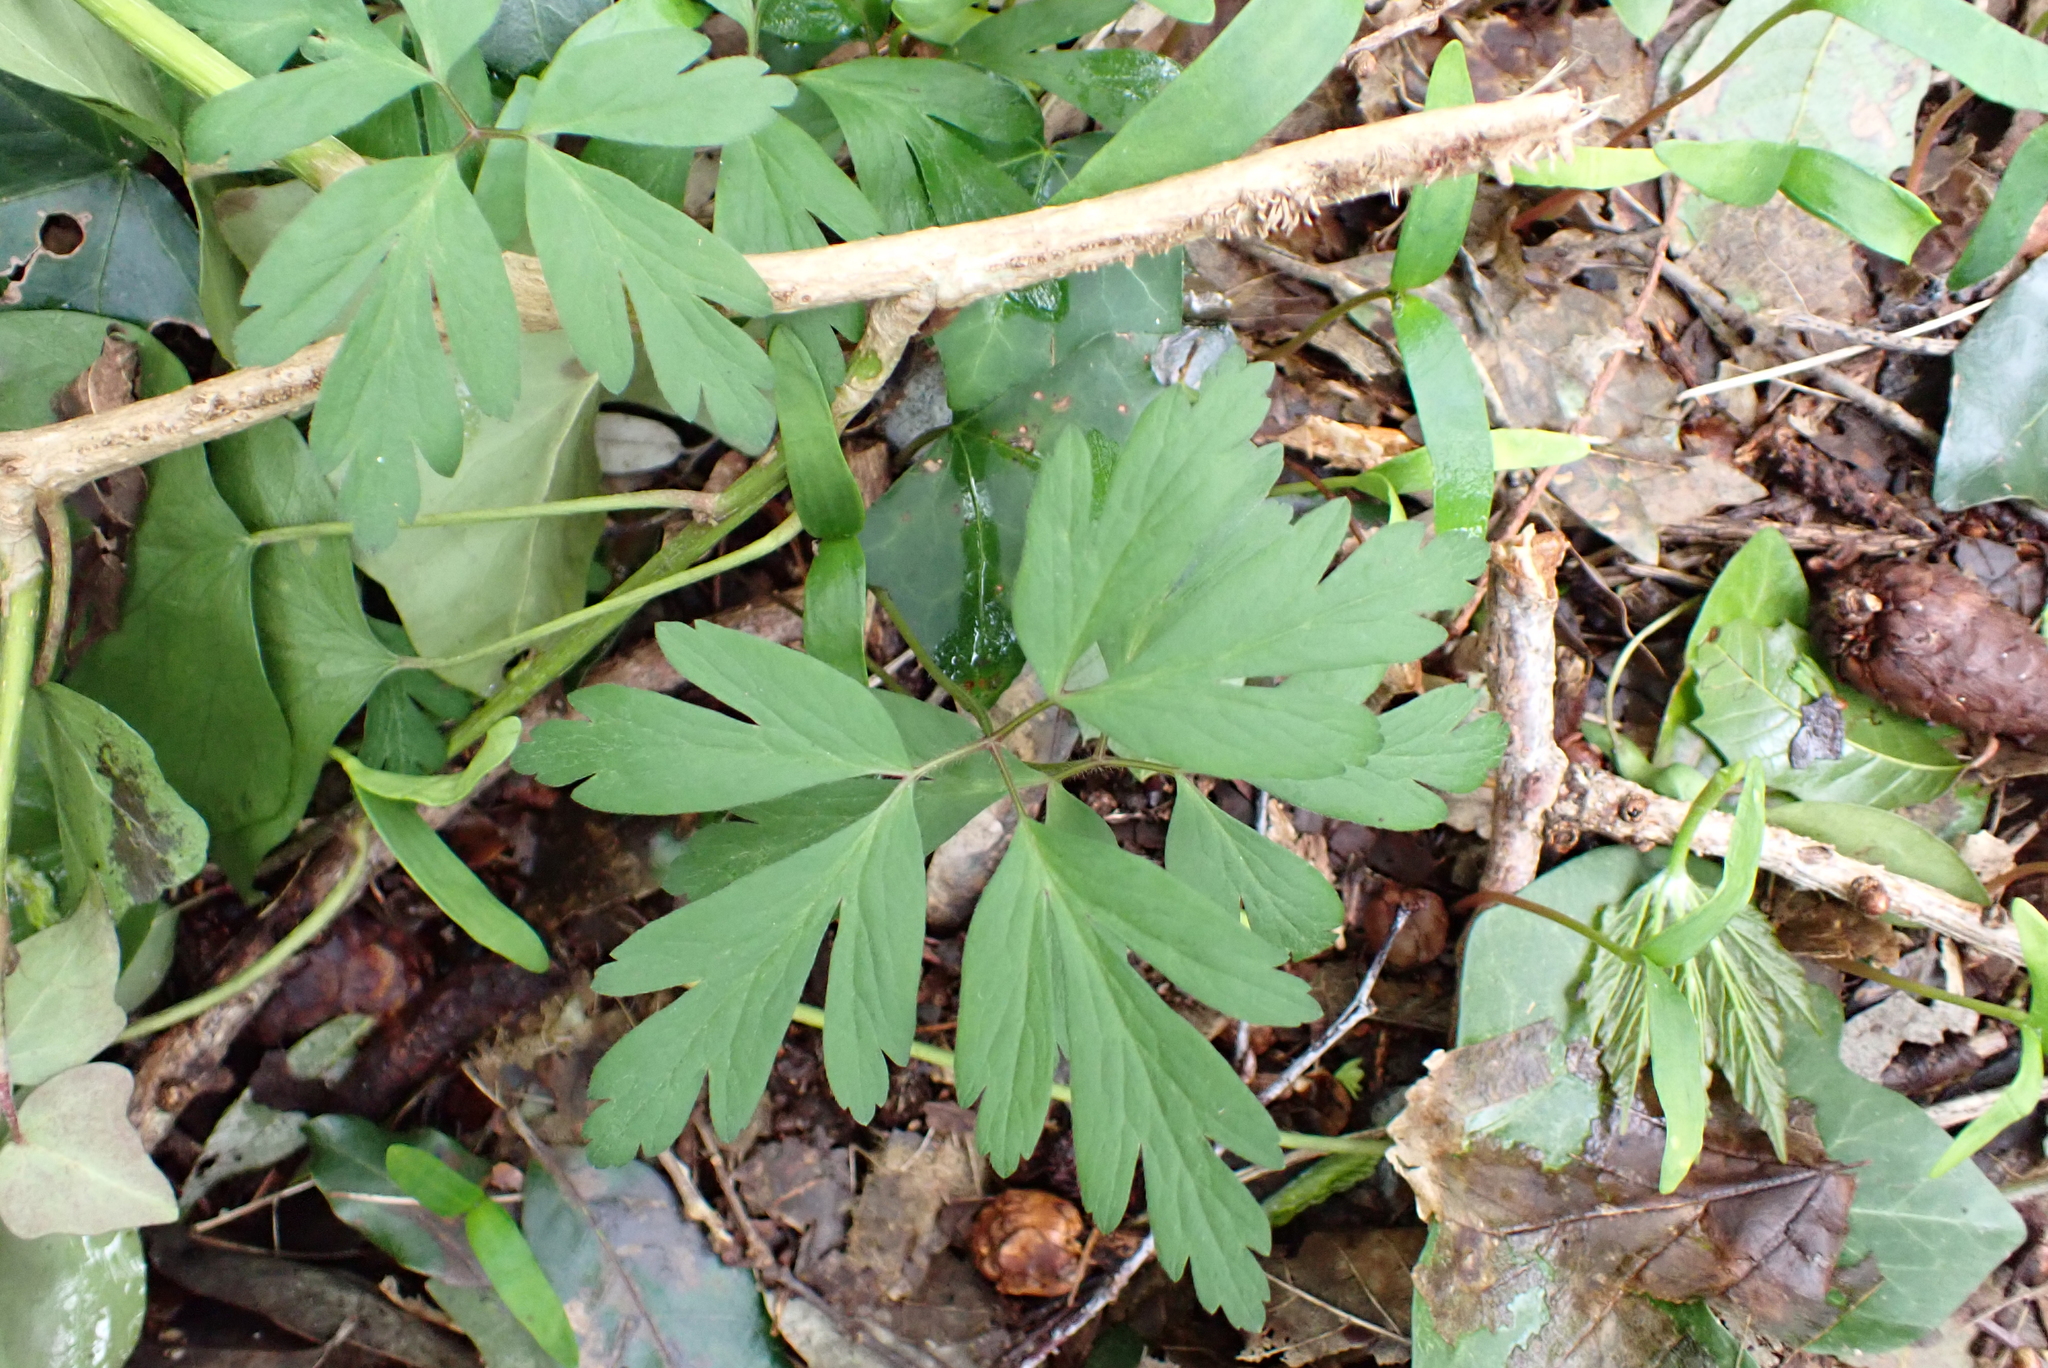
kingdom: Plantae
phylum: Tracheophyta
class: Magnoliopsida
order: Ranunculales
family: Ranunculaceae
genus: Anemone
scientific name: Anemone nemorosa
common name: Wood anemone
